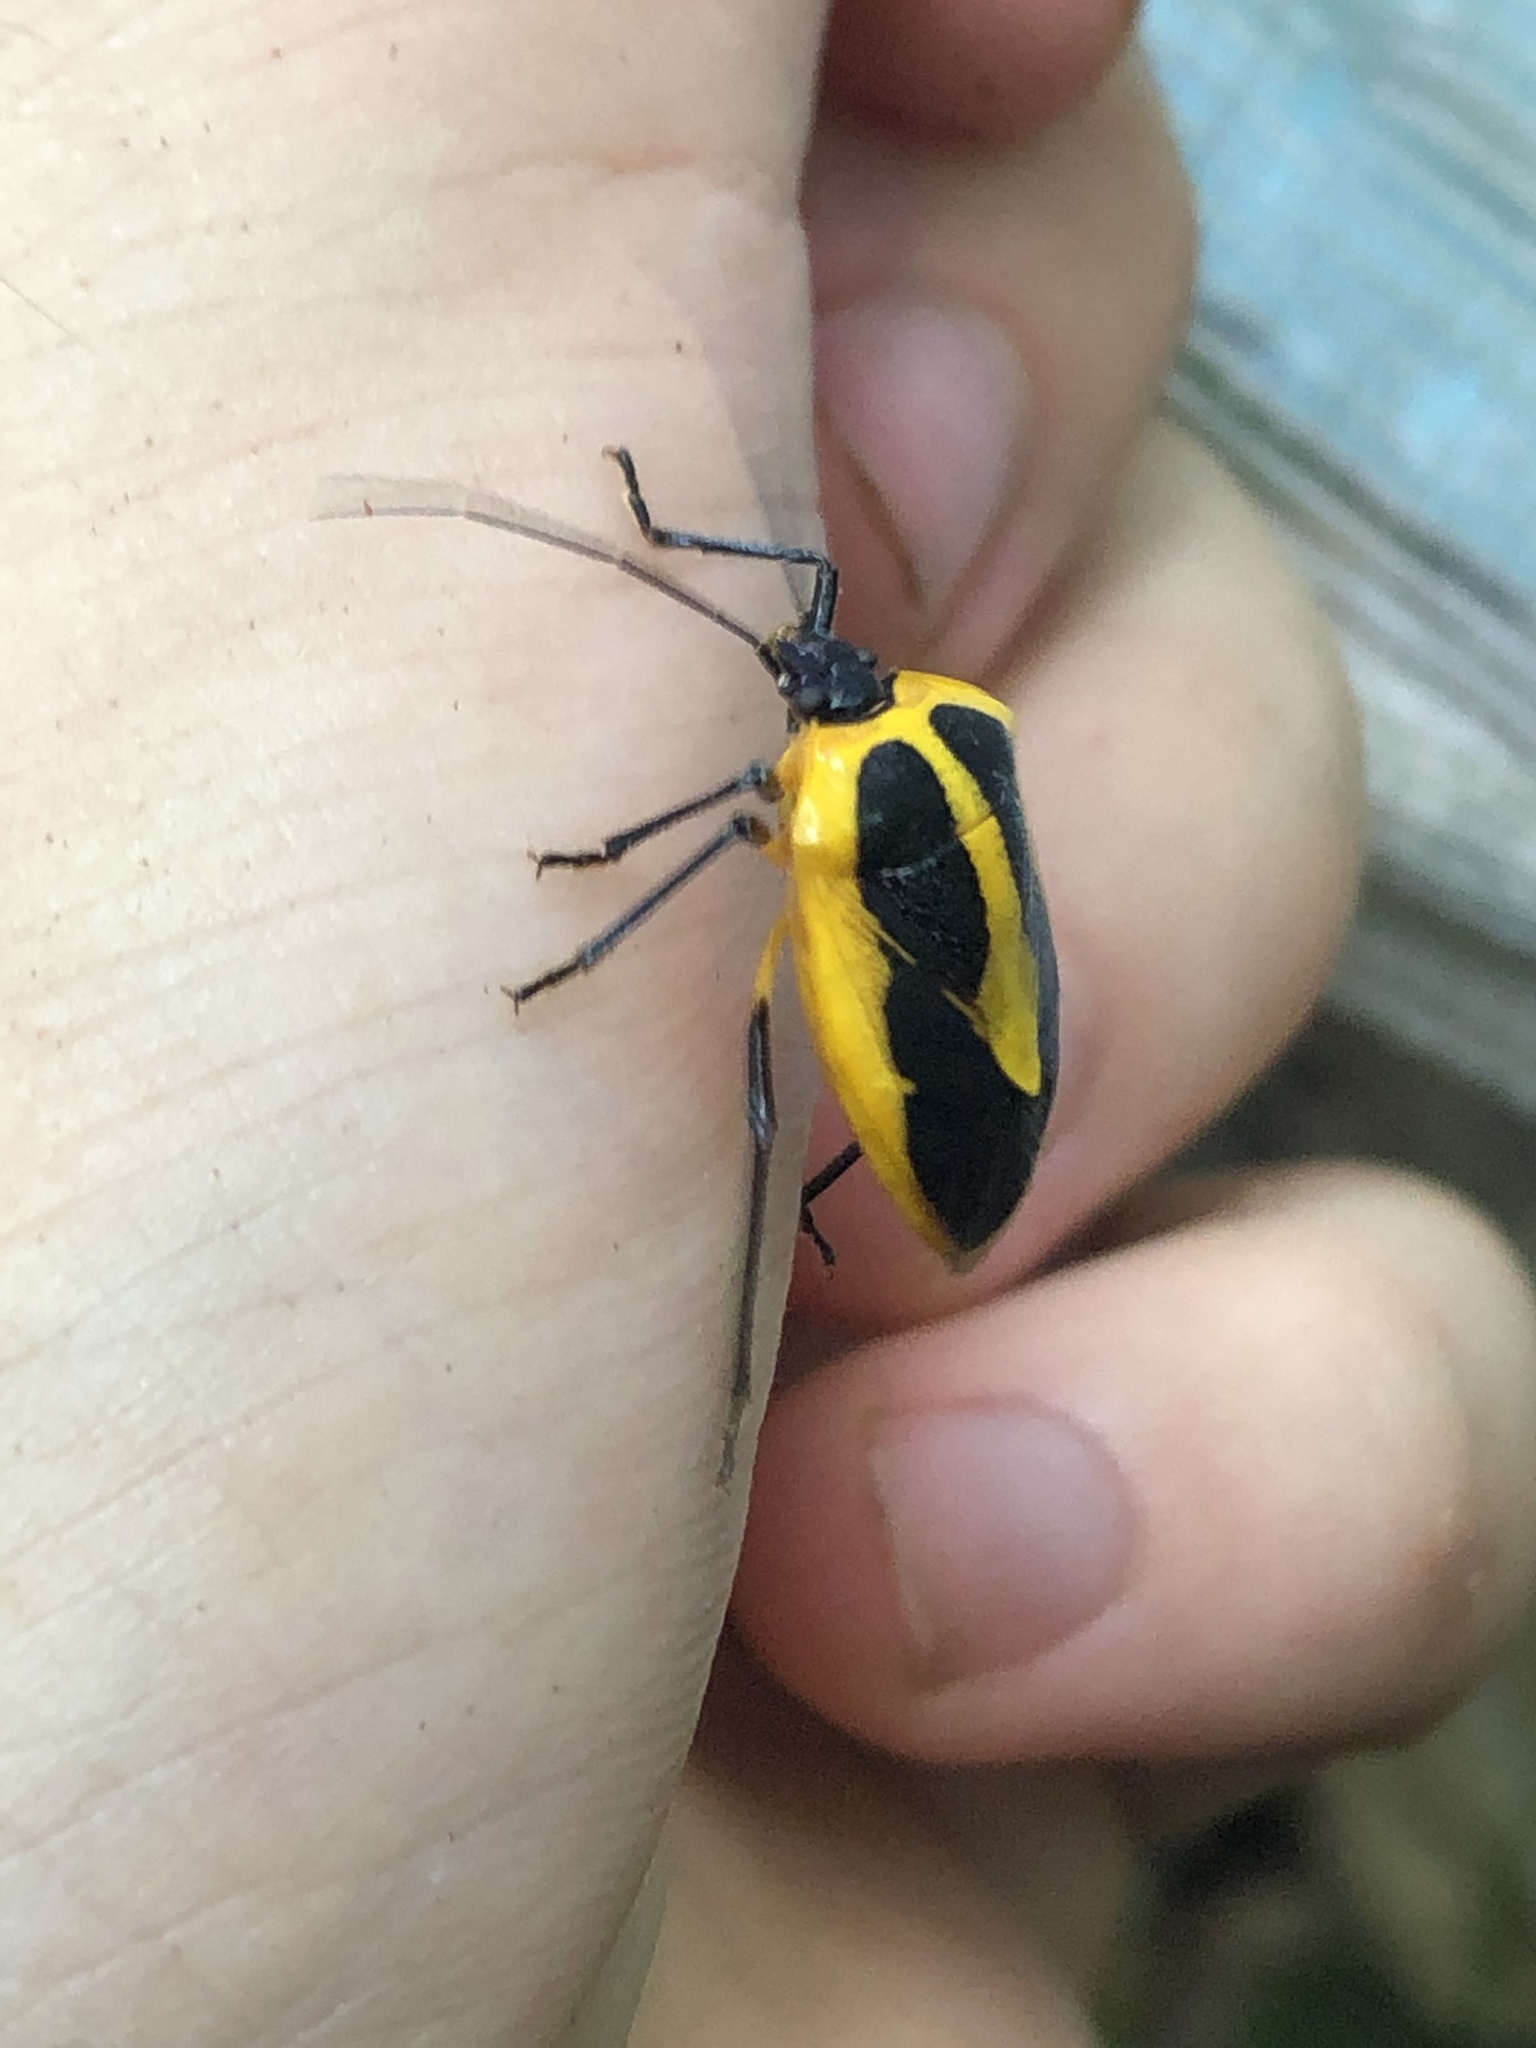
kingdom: Animalia
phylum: Arthropoda
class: Insecta
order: Hemiptera
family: Pentatomidae
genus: Arocera
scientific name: Arocera aequinoxialis
